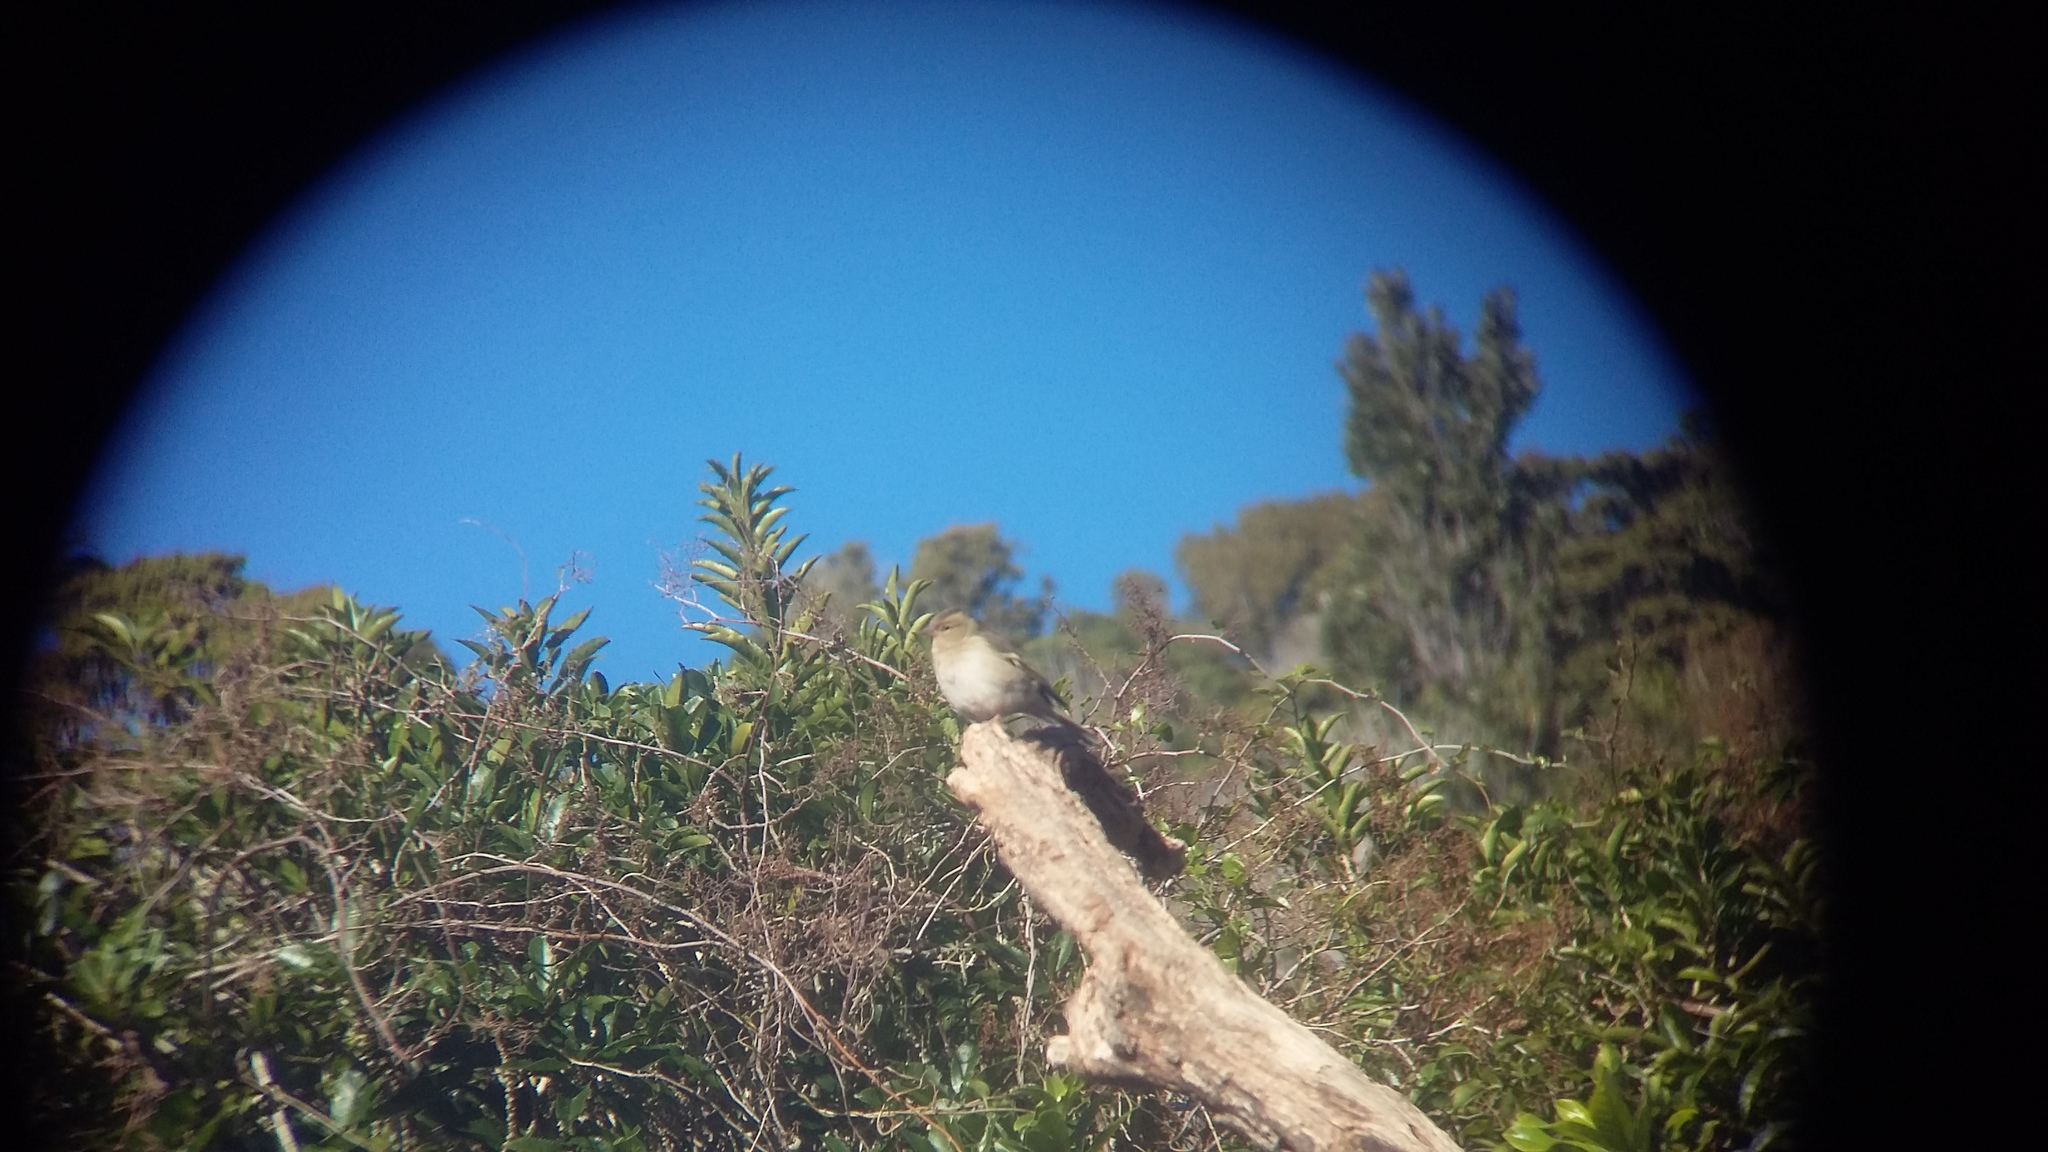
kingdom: Animalia
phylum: Chordata
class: Aves
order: Passeriformes
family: Fringillidae
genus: Fringilla
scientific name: Fringilla coelebs
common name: Common chaffinch
